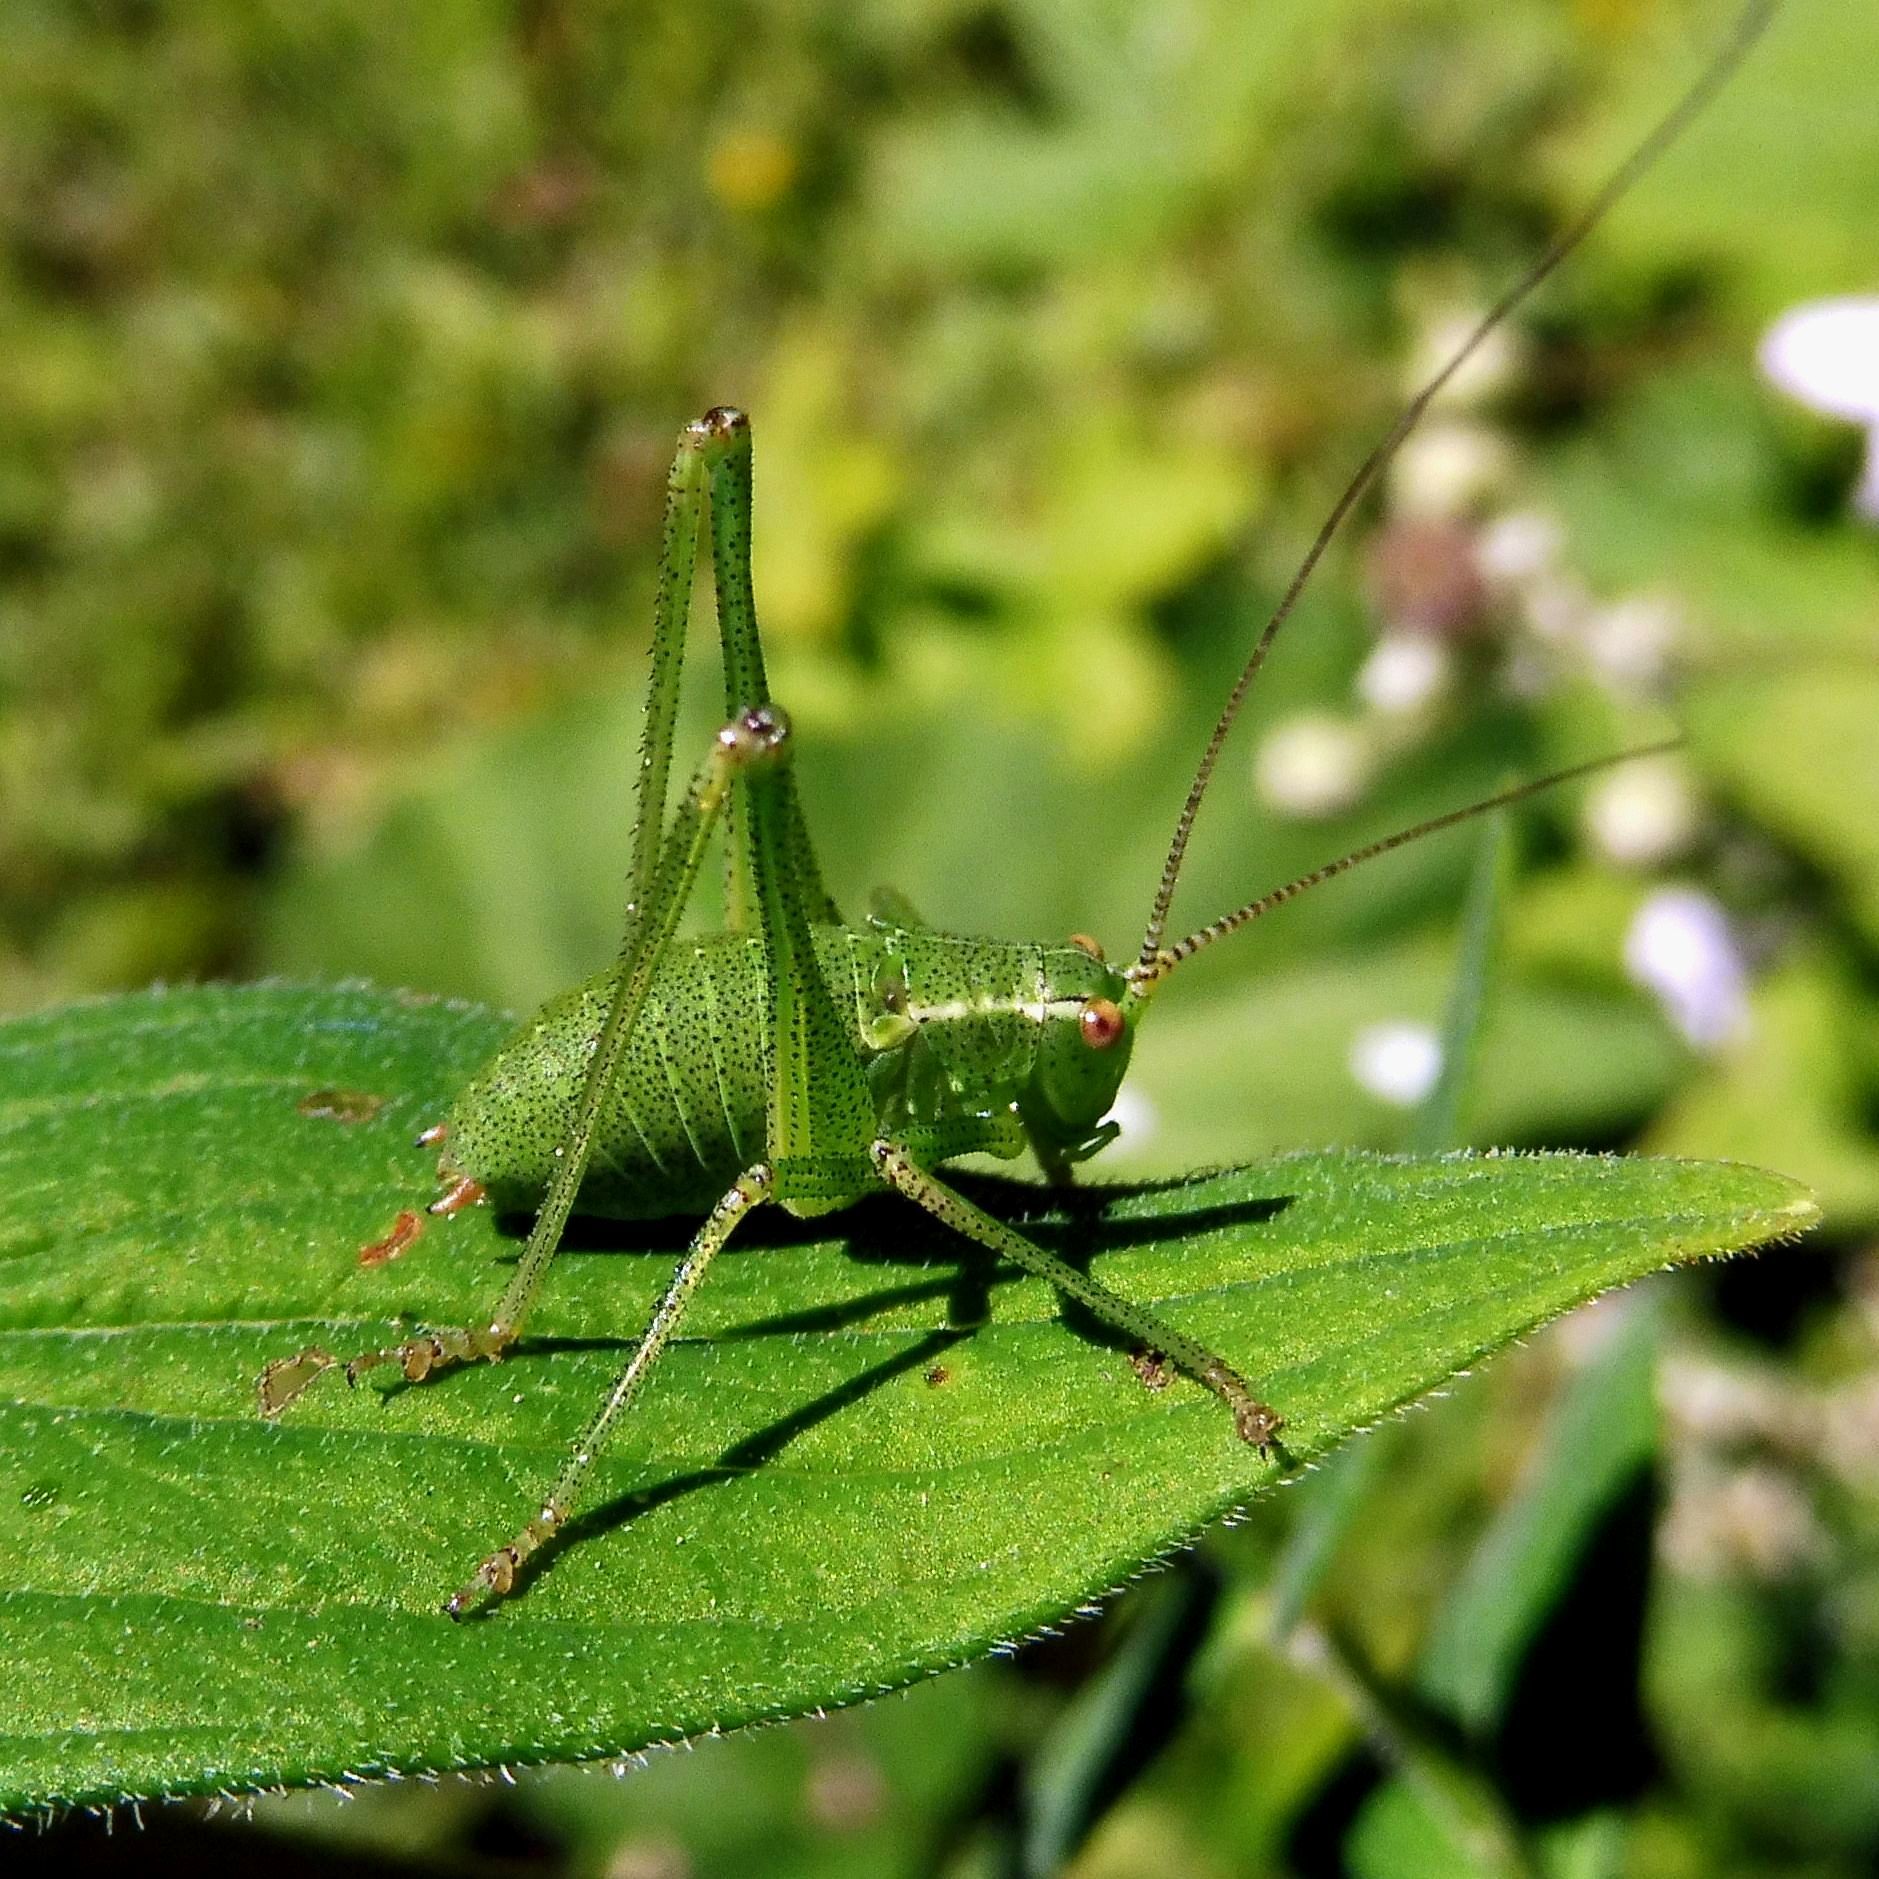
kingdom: Animalia
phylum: Arthropoda
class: Insecta
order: Orthoptera
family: Tettigoniidae
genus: Leptophyes
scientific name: Leptophyes punctatissima
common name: Speckled bush-cricket
